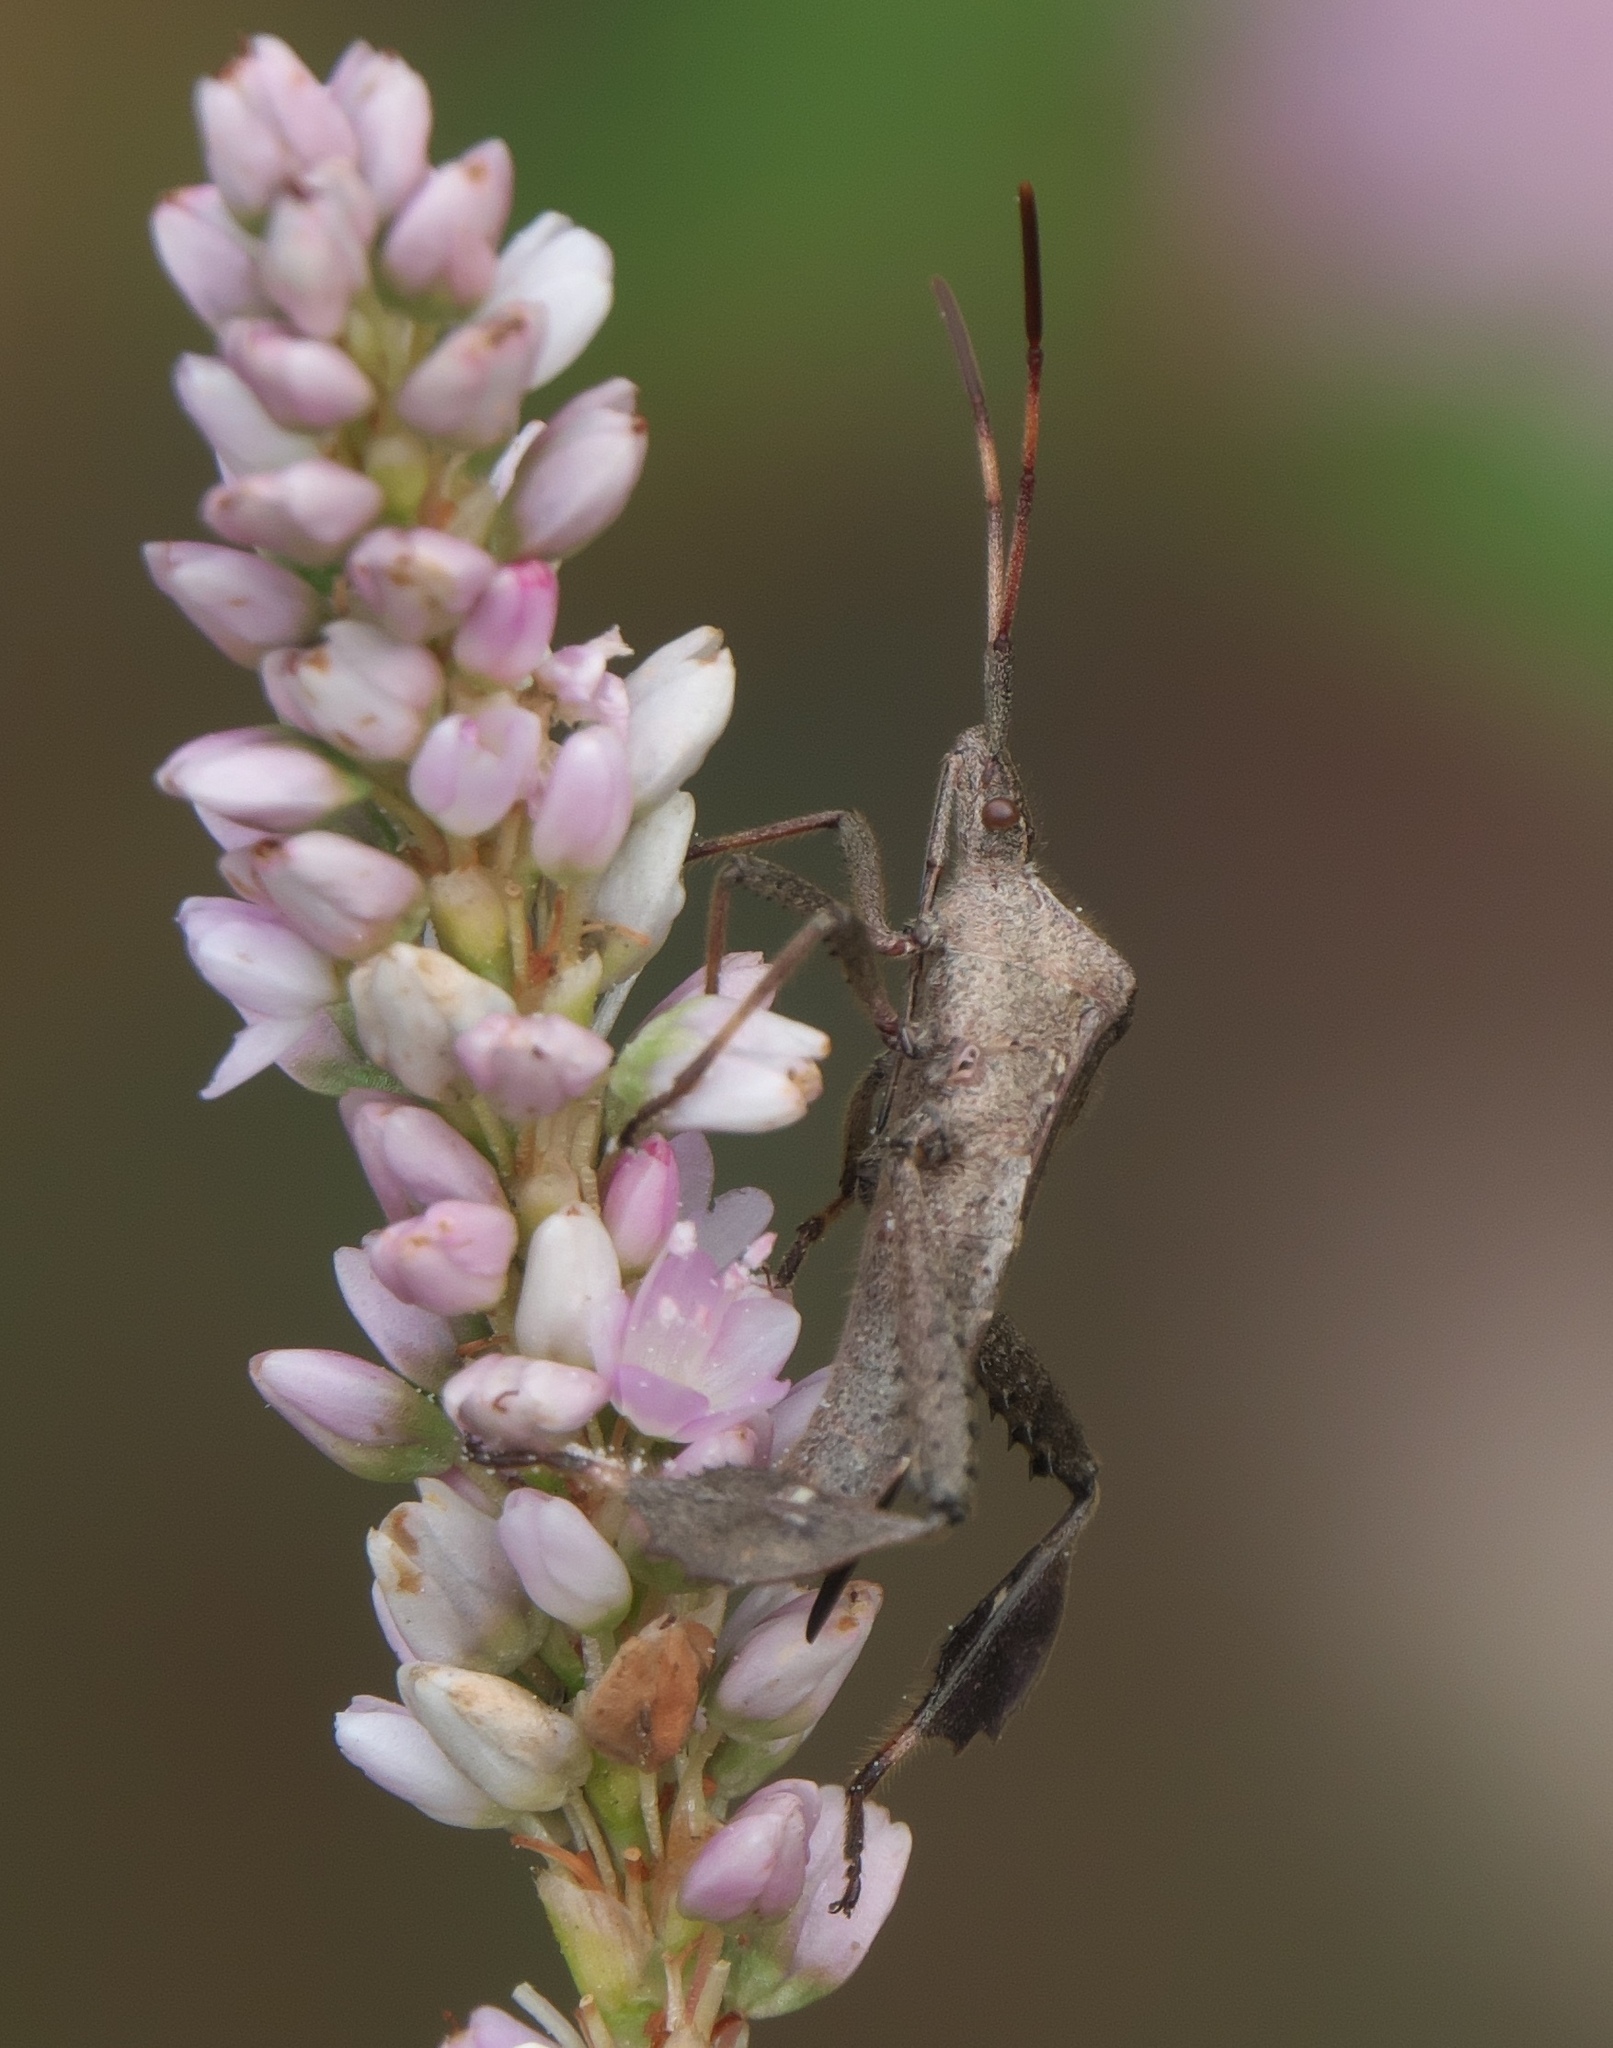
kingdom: Animalia
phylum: Arthropoda
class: Insecta
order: Hemiptera
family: Coreidae
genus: Leptoglossus
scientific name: Leptoglossus phyllopus
